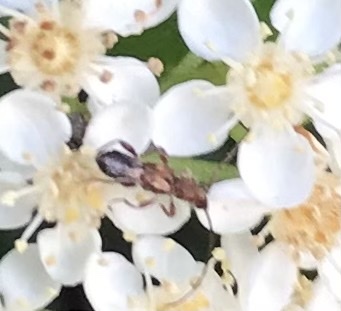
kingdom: Animalia
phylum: Arthropoda
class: Insecta
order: Coleoptera
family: Cerambycidae
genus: Molorchus
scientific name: Molorchus bimaculatus
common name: Bimaculate longhorn beetle
